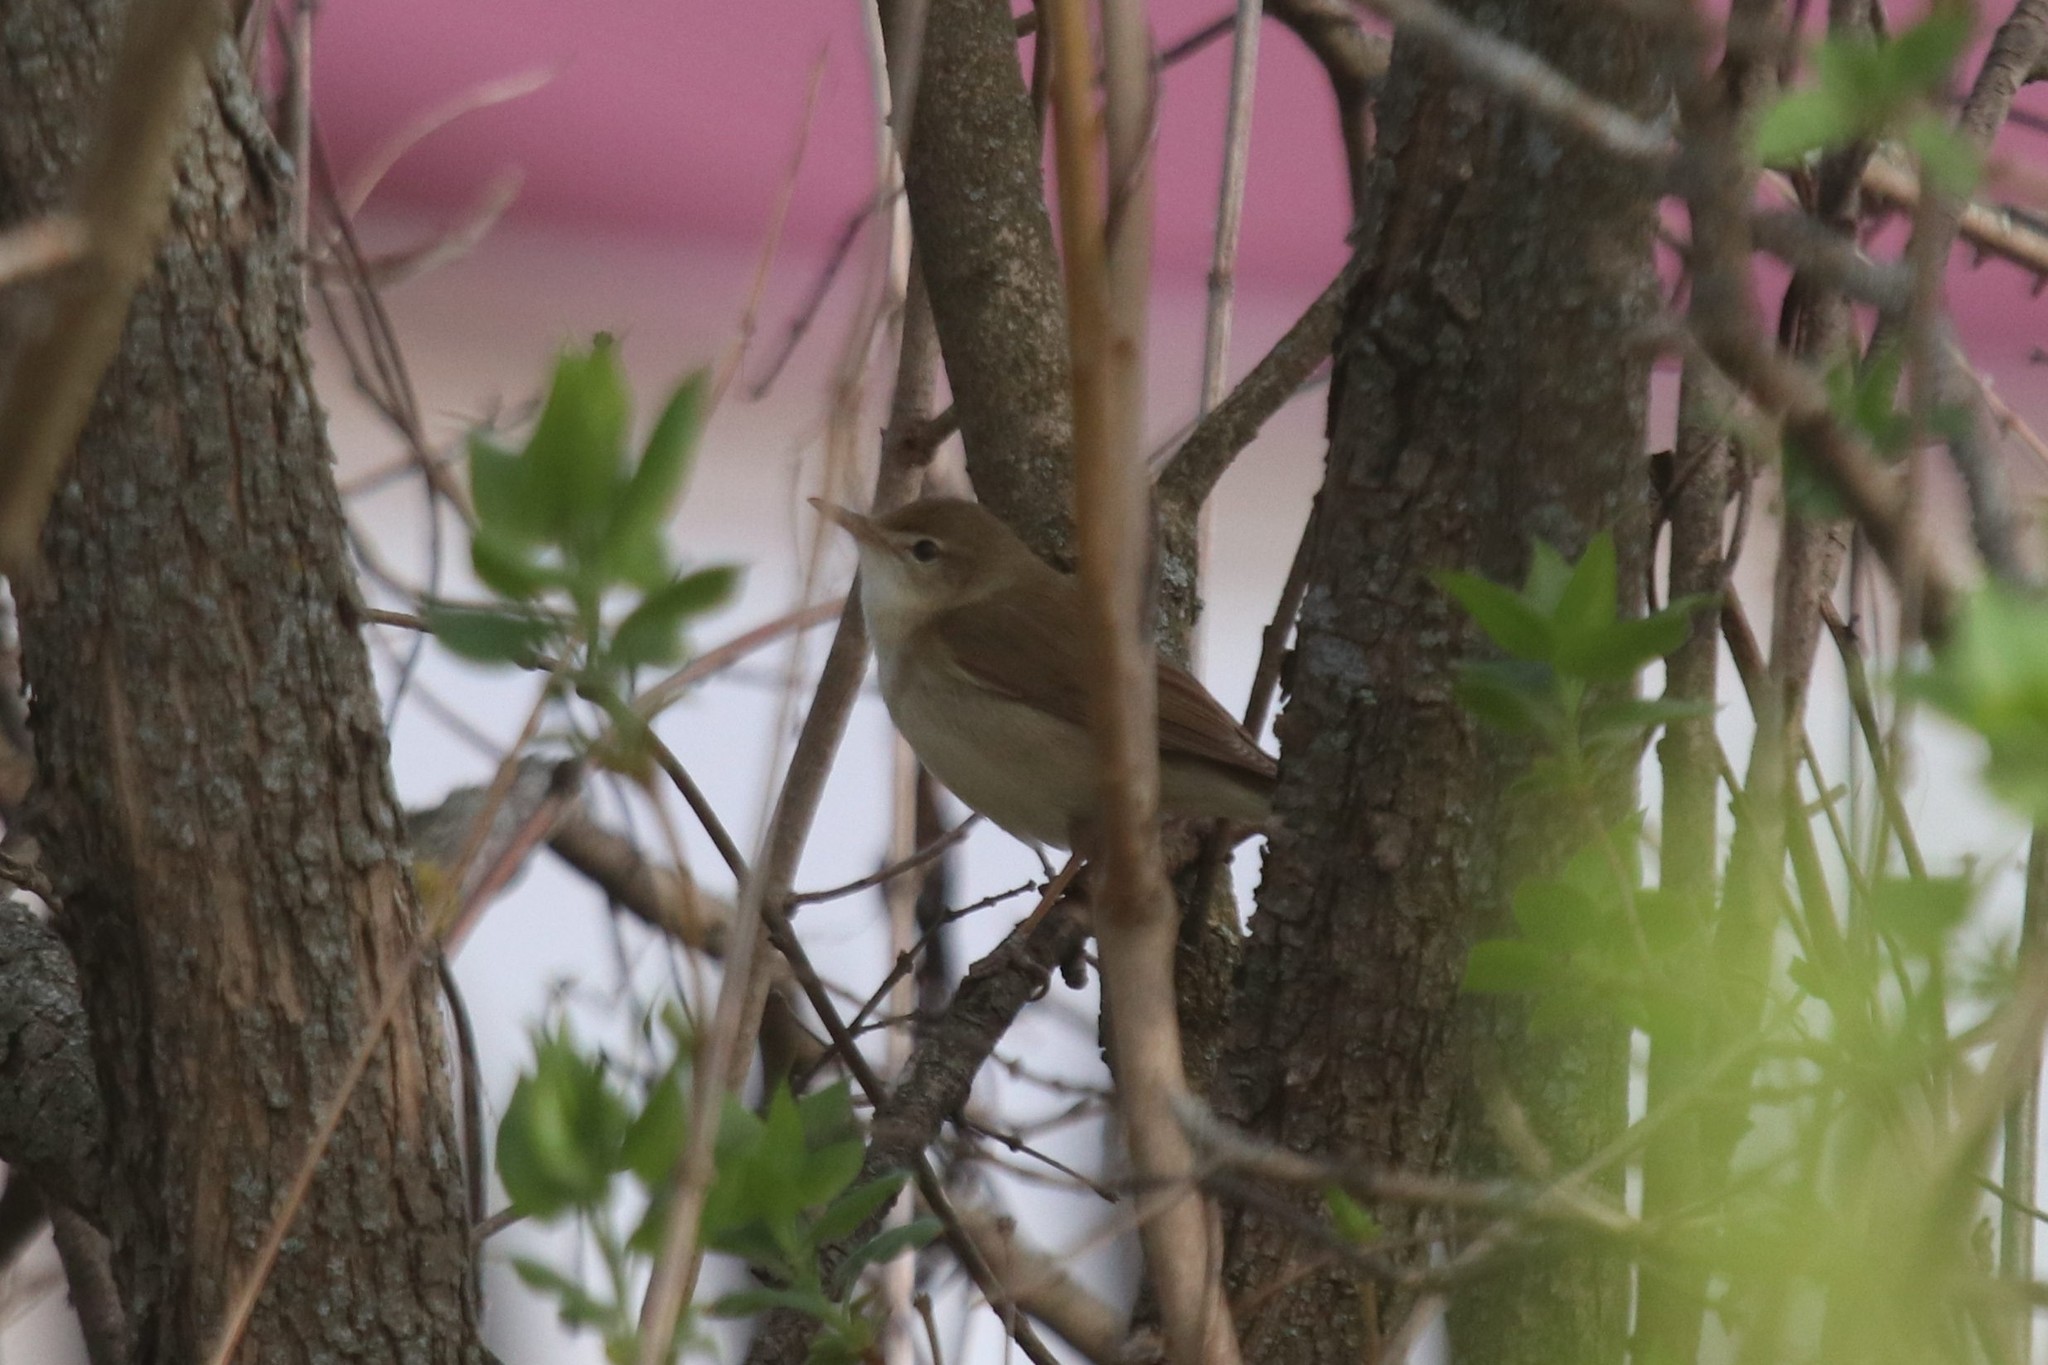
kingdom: Animalia
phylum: Chordata
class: Aves
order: Passeriformes
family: Acrocephalidae
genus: Acrocephalus
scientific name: Acrocephalus dumetorum
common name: Blyth's reed warbler
